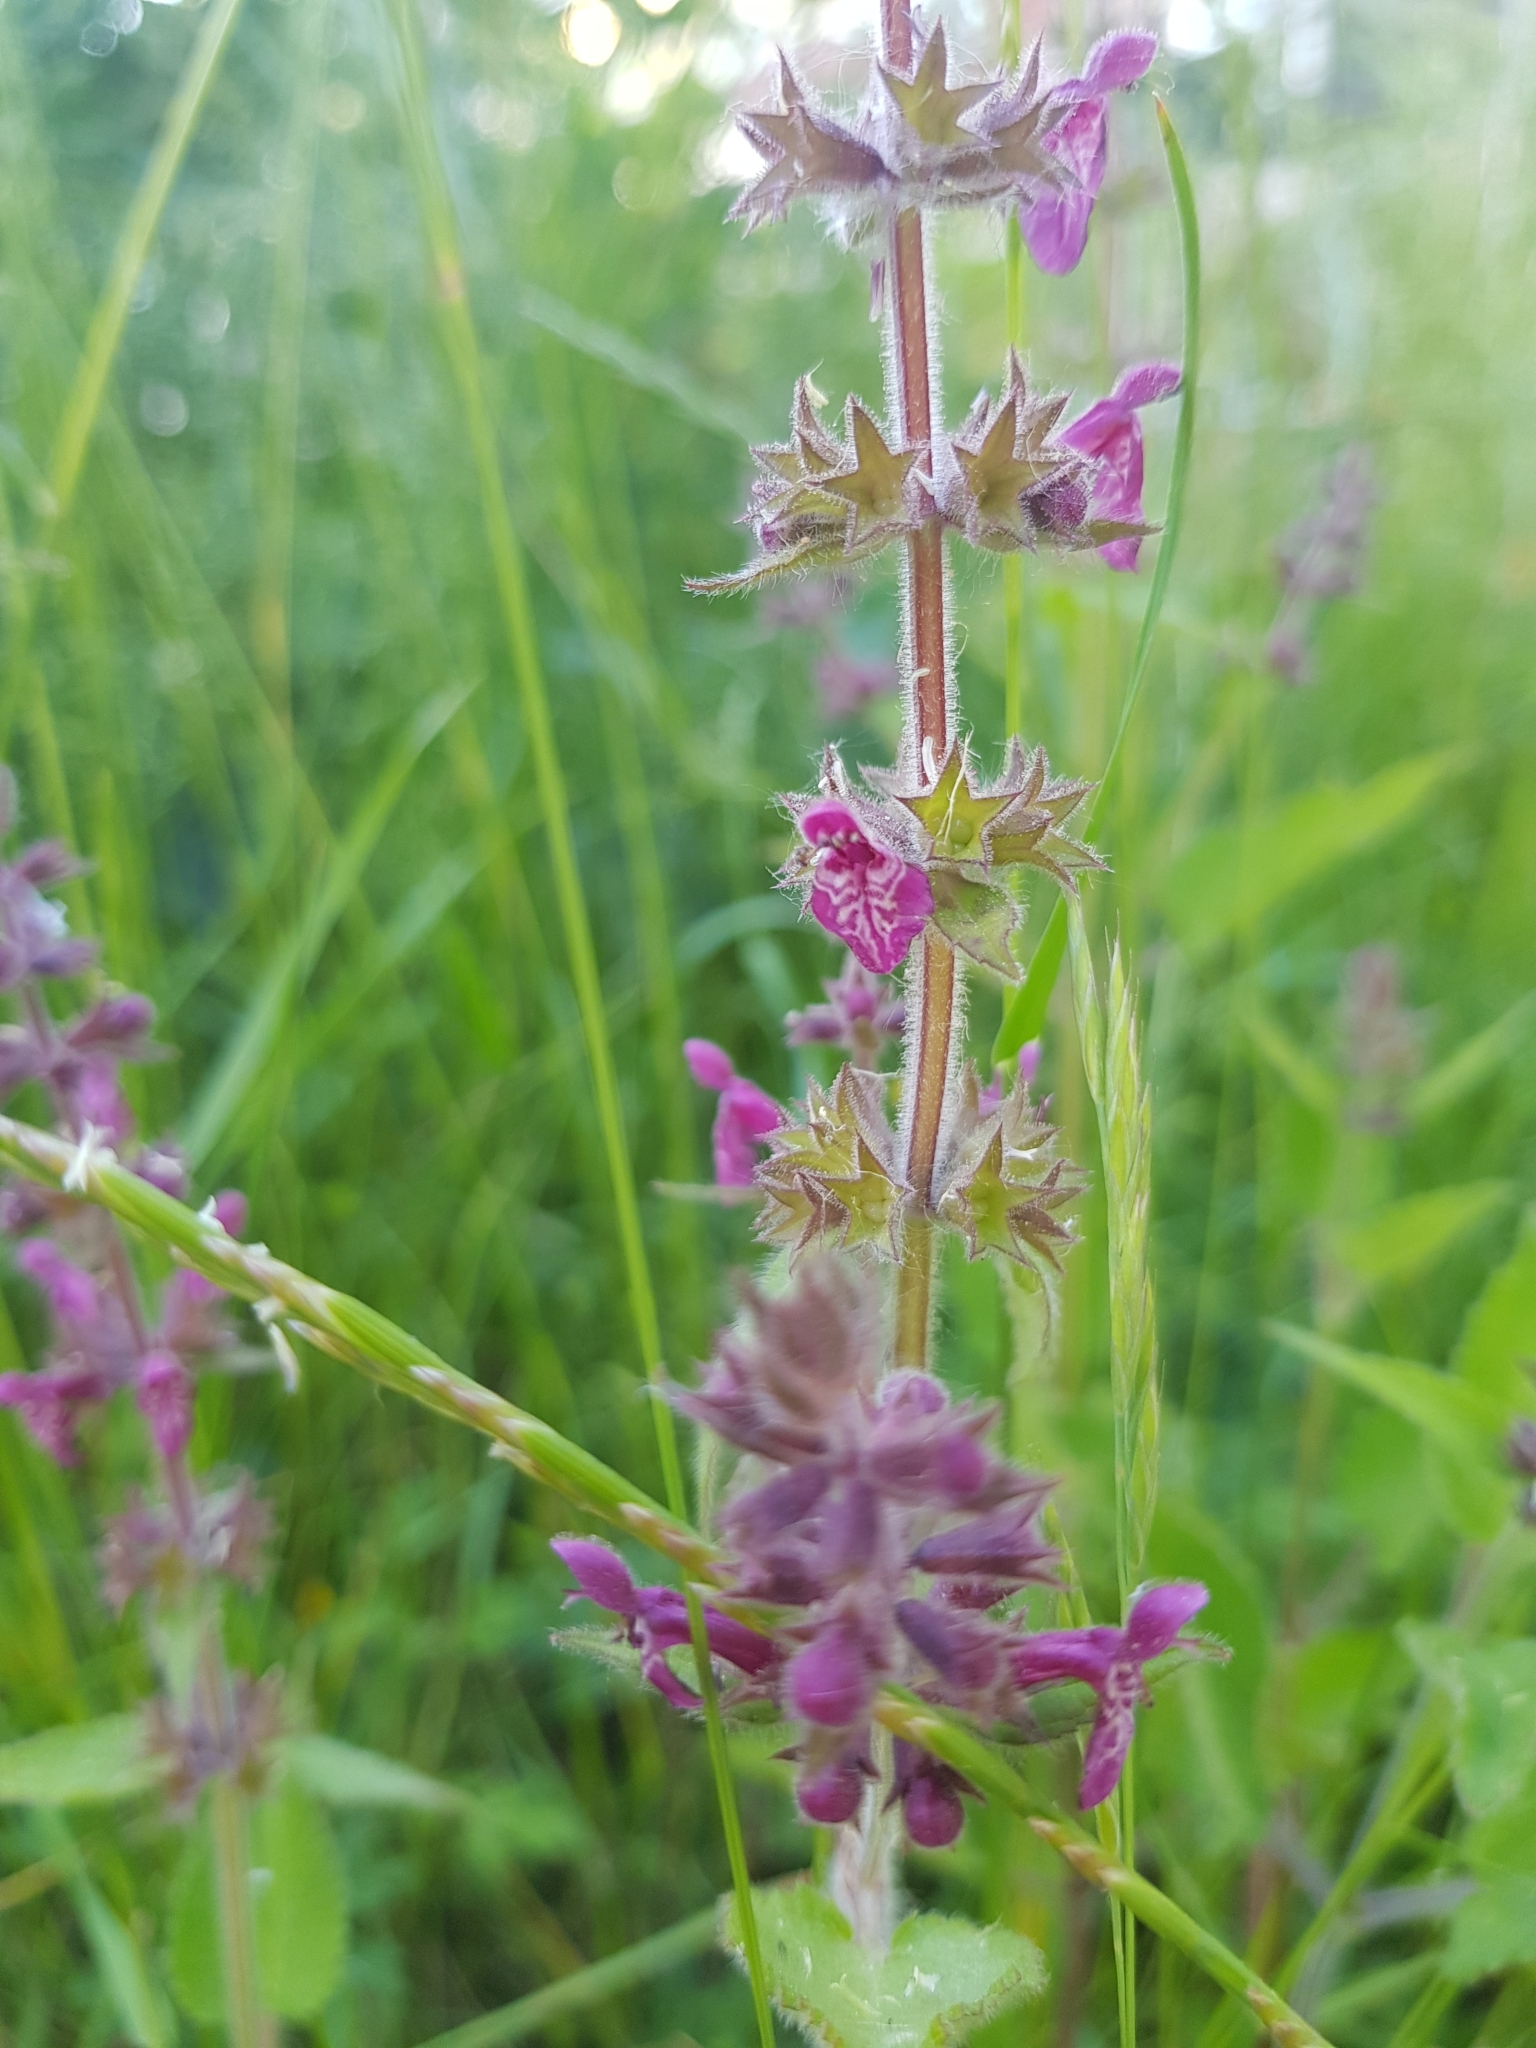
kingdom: Plantae
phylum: Tracheophyta
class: Magnoliopsida
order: Lamiales
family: Lamiaceae
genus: Stachys
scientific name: Stachys sylvatica
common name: Hedge woundwort
